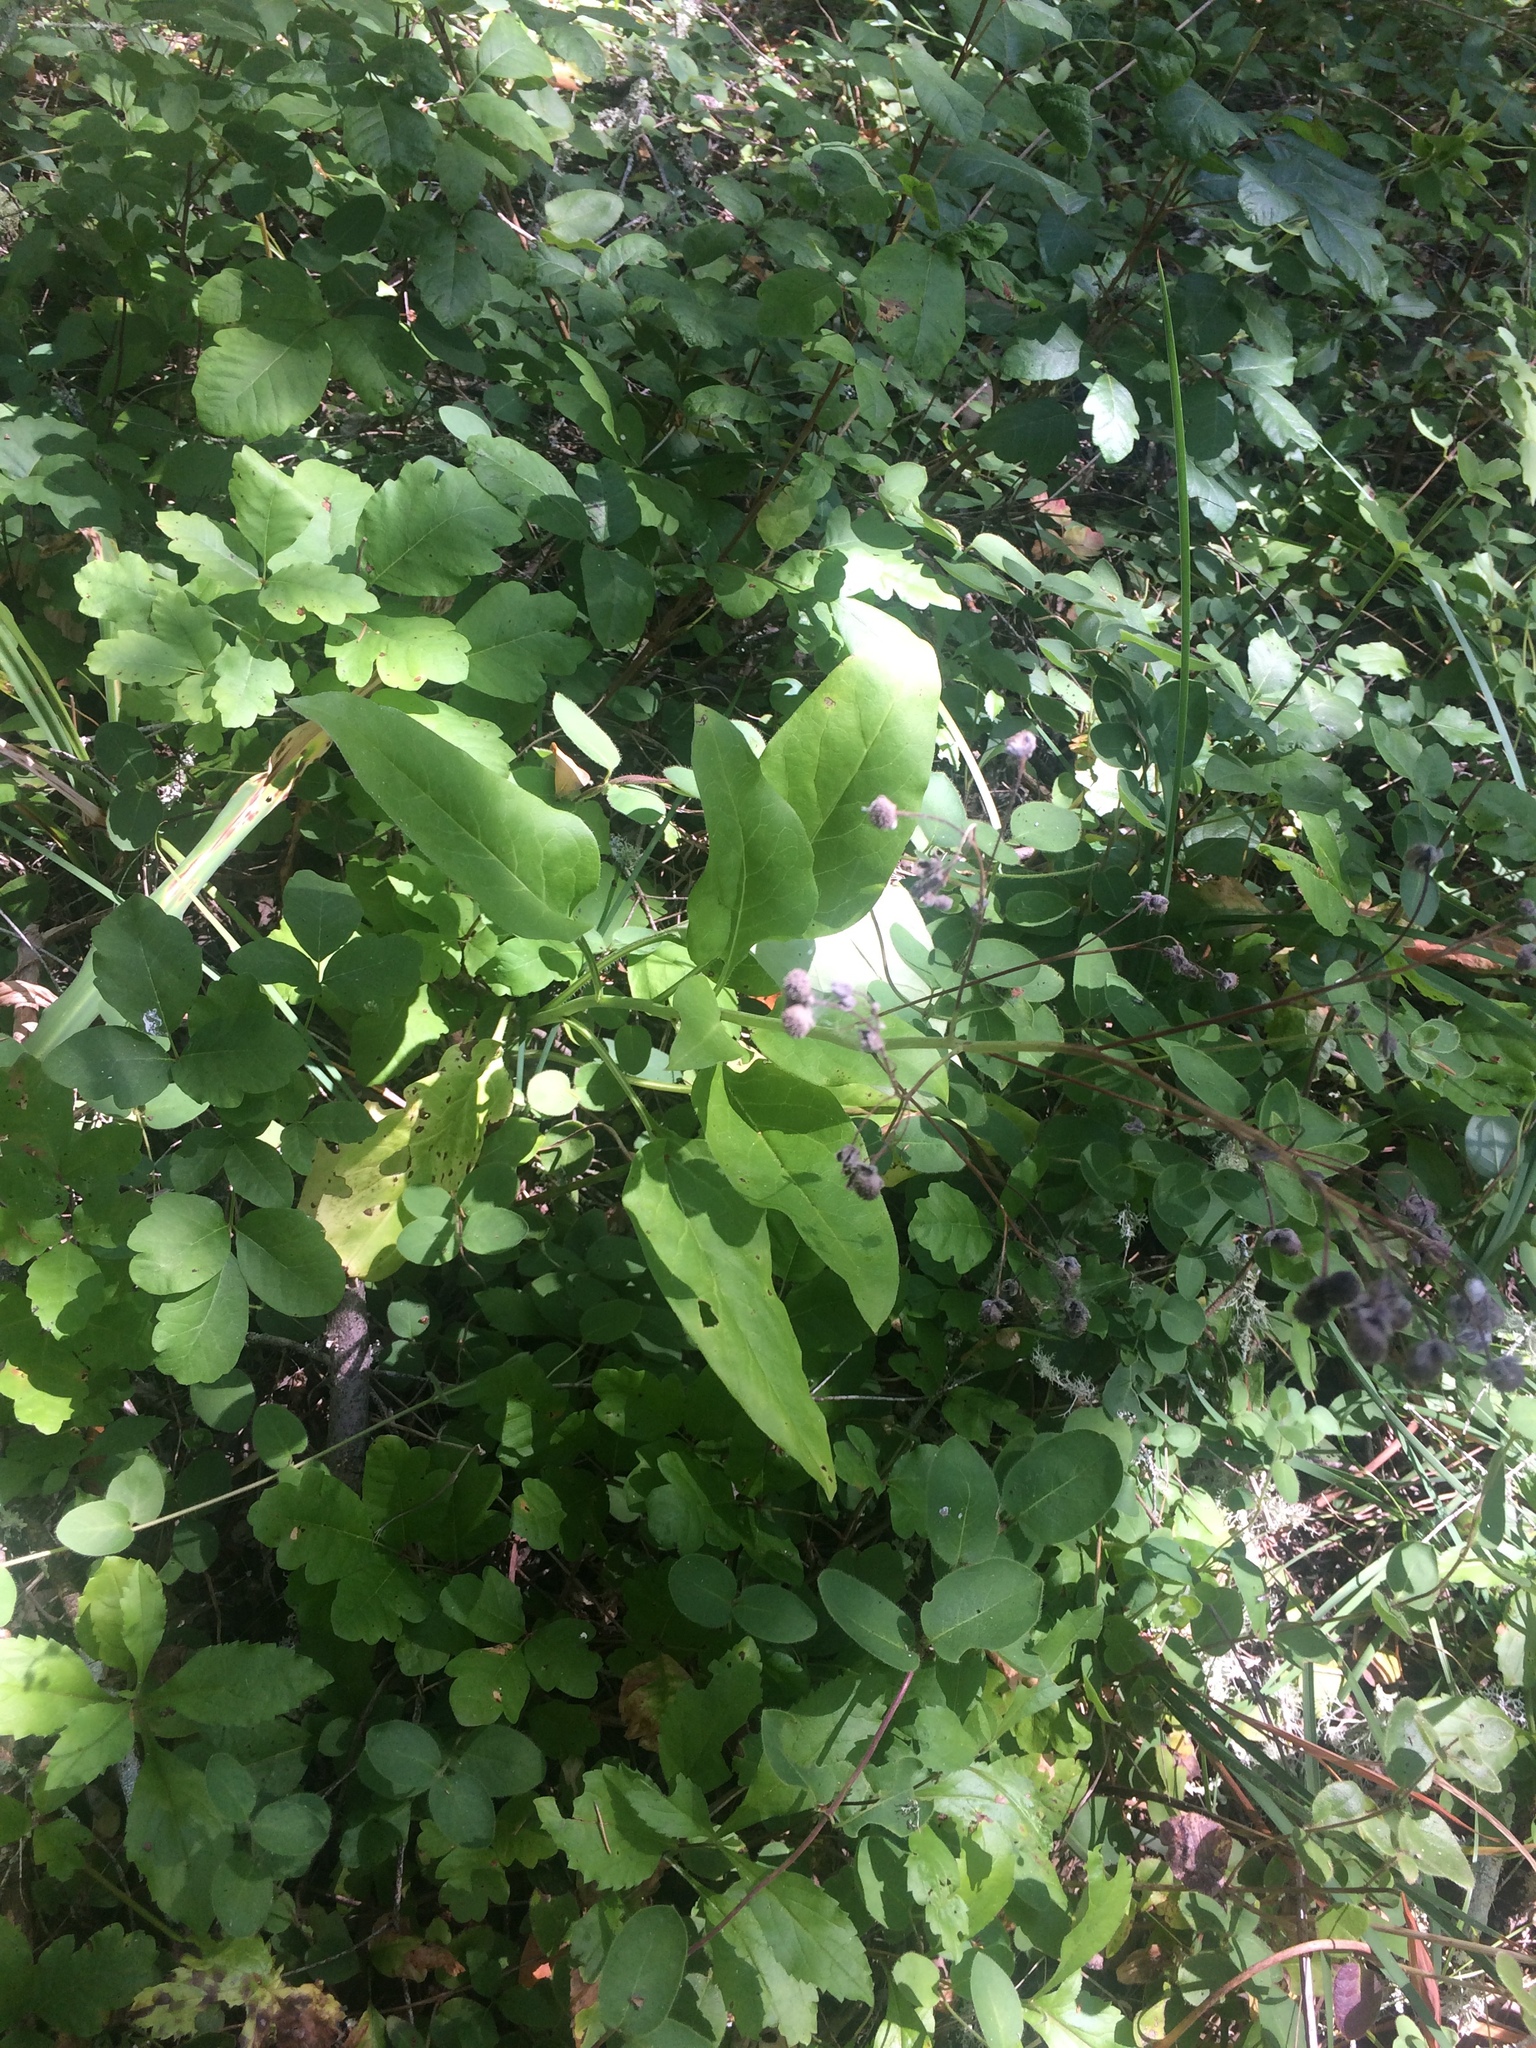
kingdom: Plantae
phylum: Tracheophyta
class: Magnoliopsida
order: Boraginales
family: Boraginaceae
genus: Adelinia
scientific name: Adelinia grande
